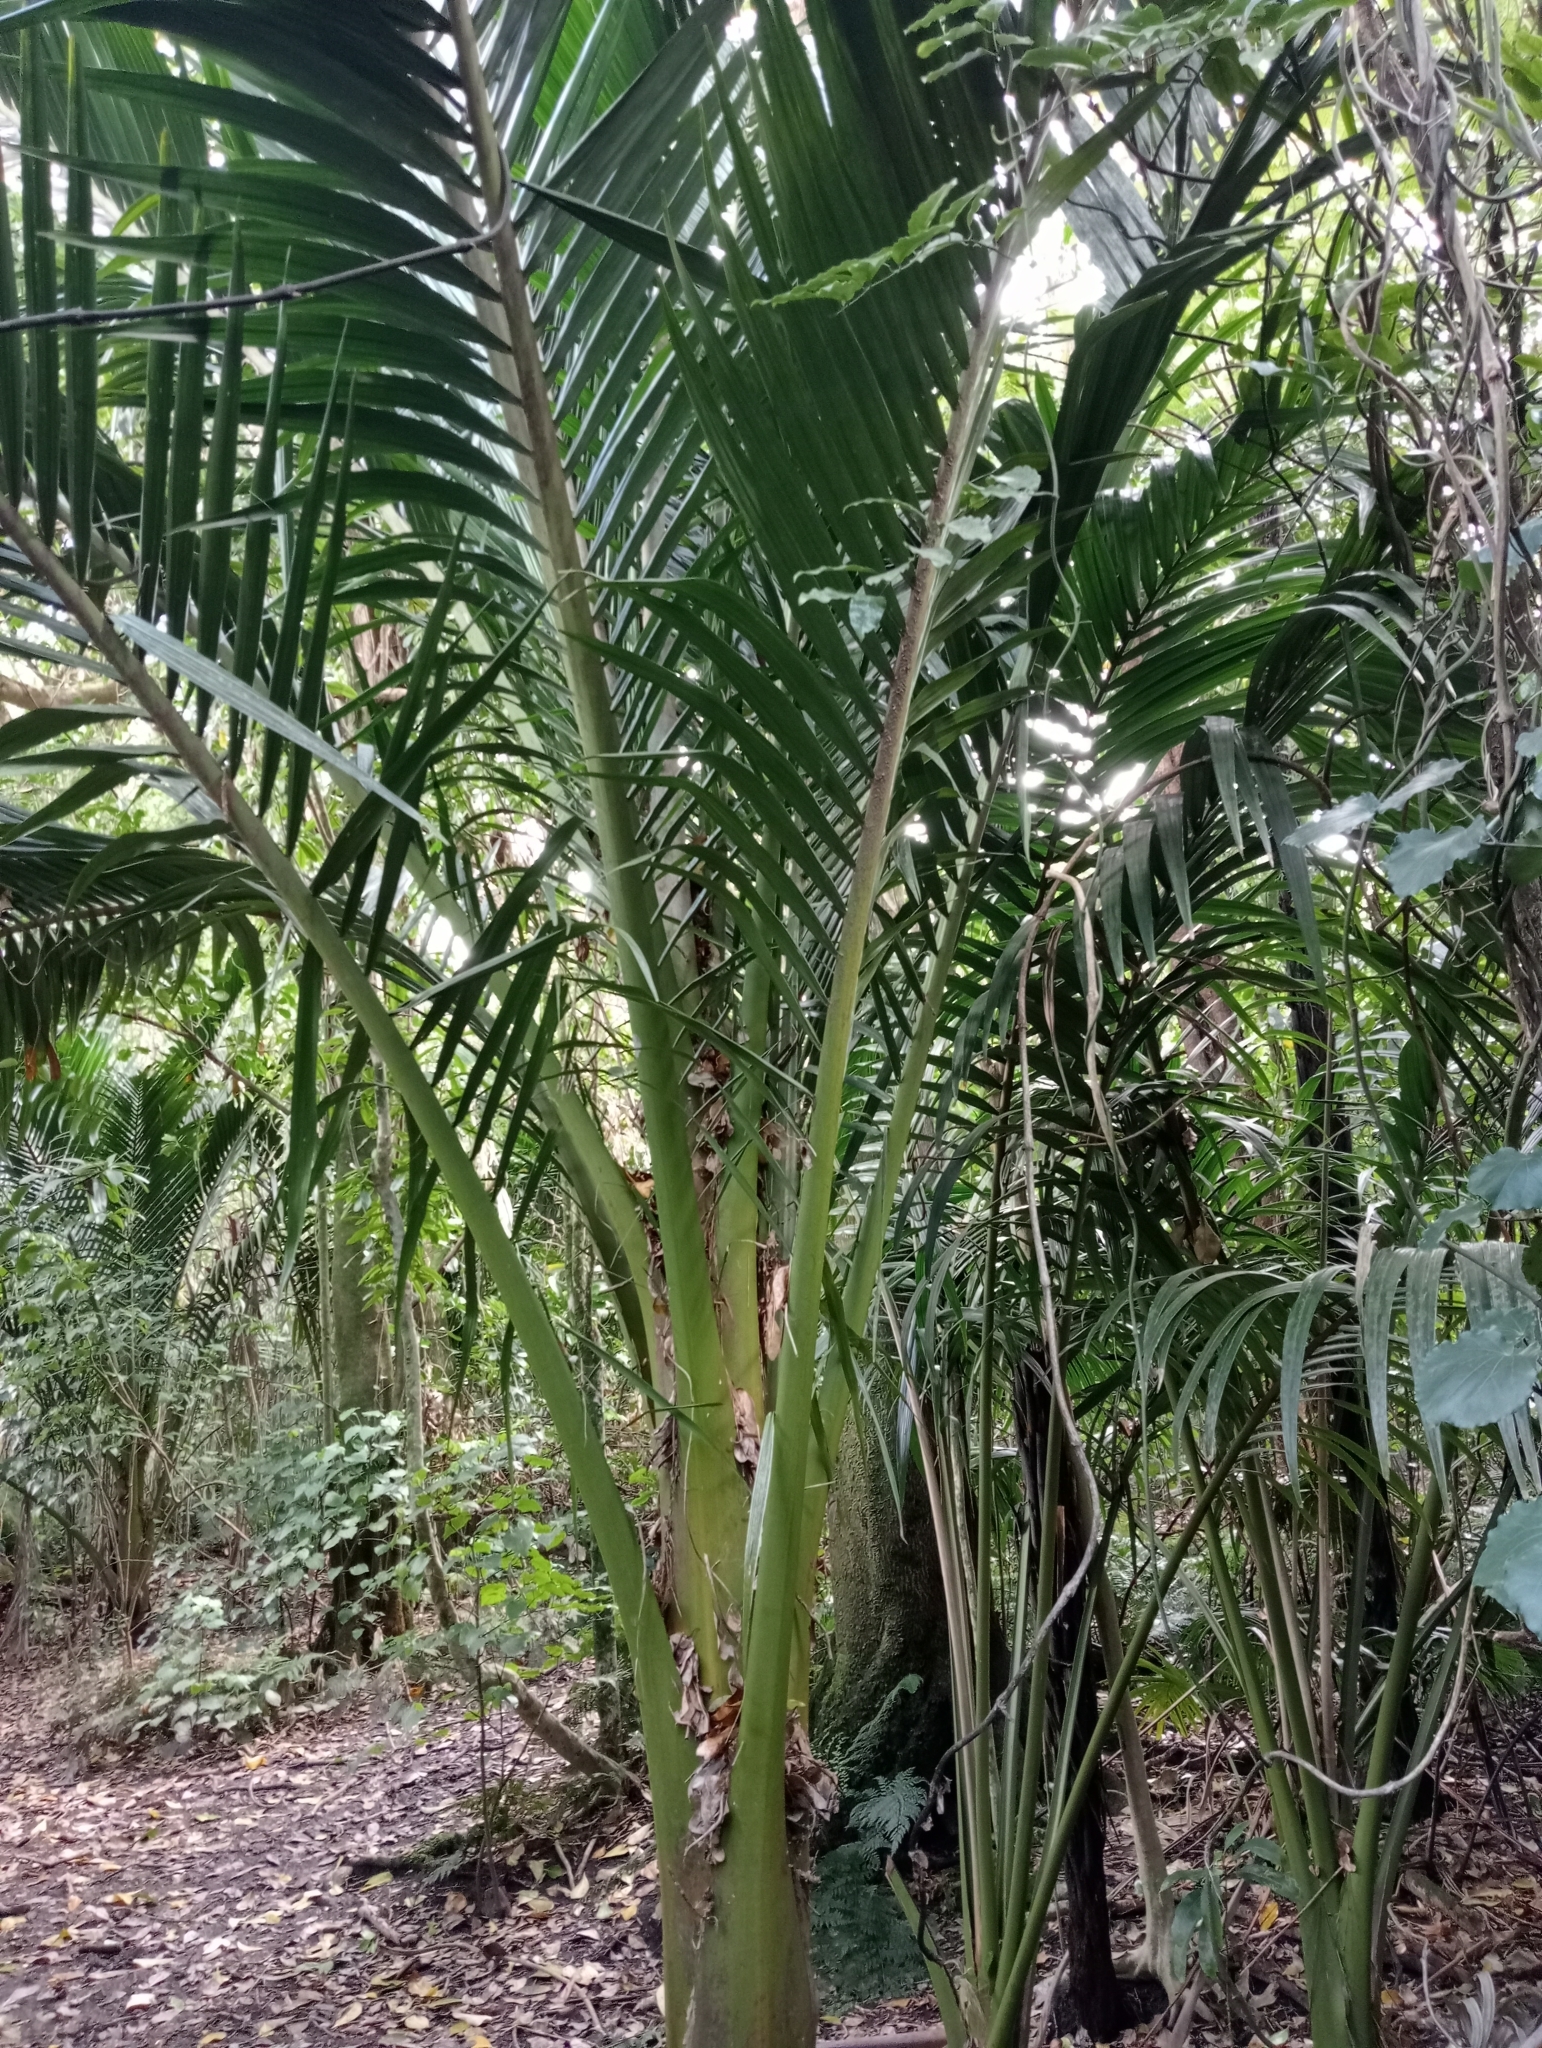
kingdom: Plantae
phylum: Tracheophyta
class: Liliopsida
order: Arecales
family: Arecaceae
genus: Rhopalostylis
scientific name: Rhopalostylis sapida
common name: Feather-duster palm
